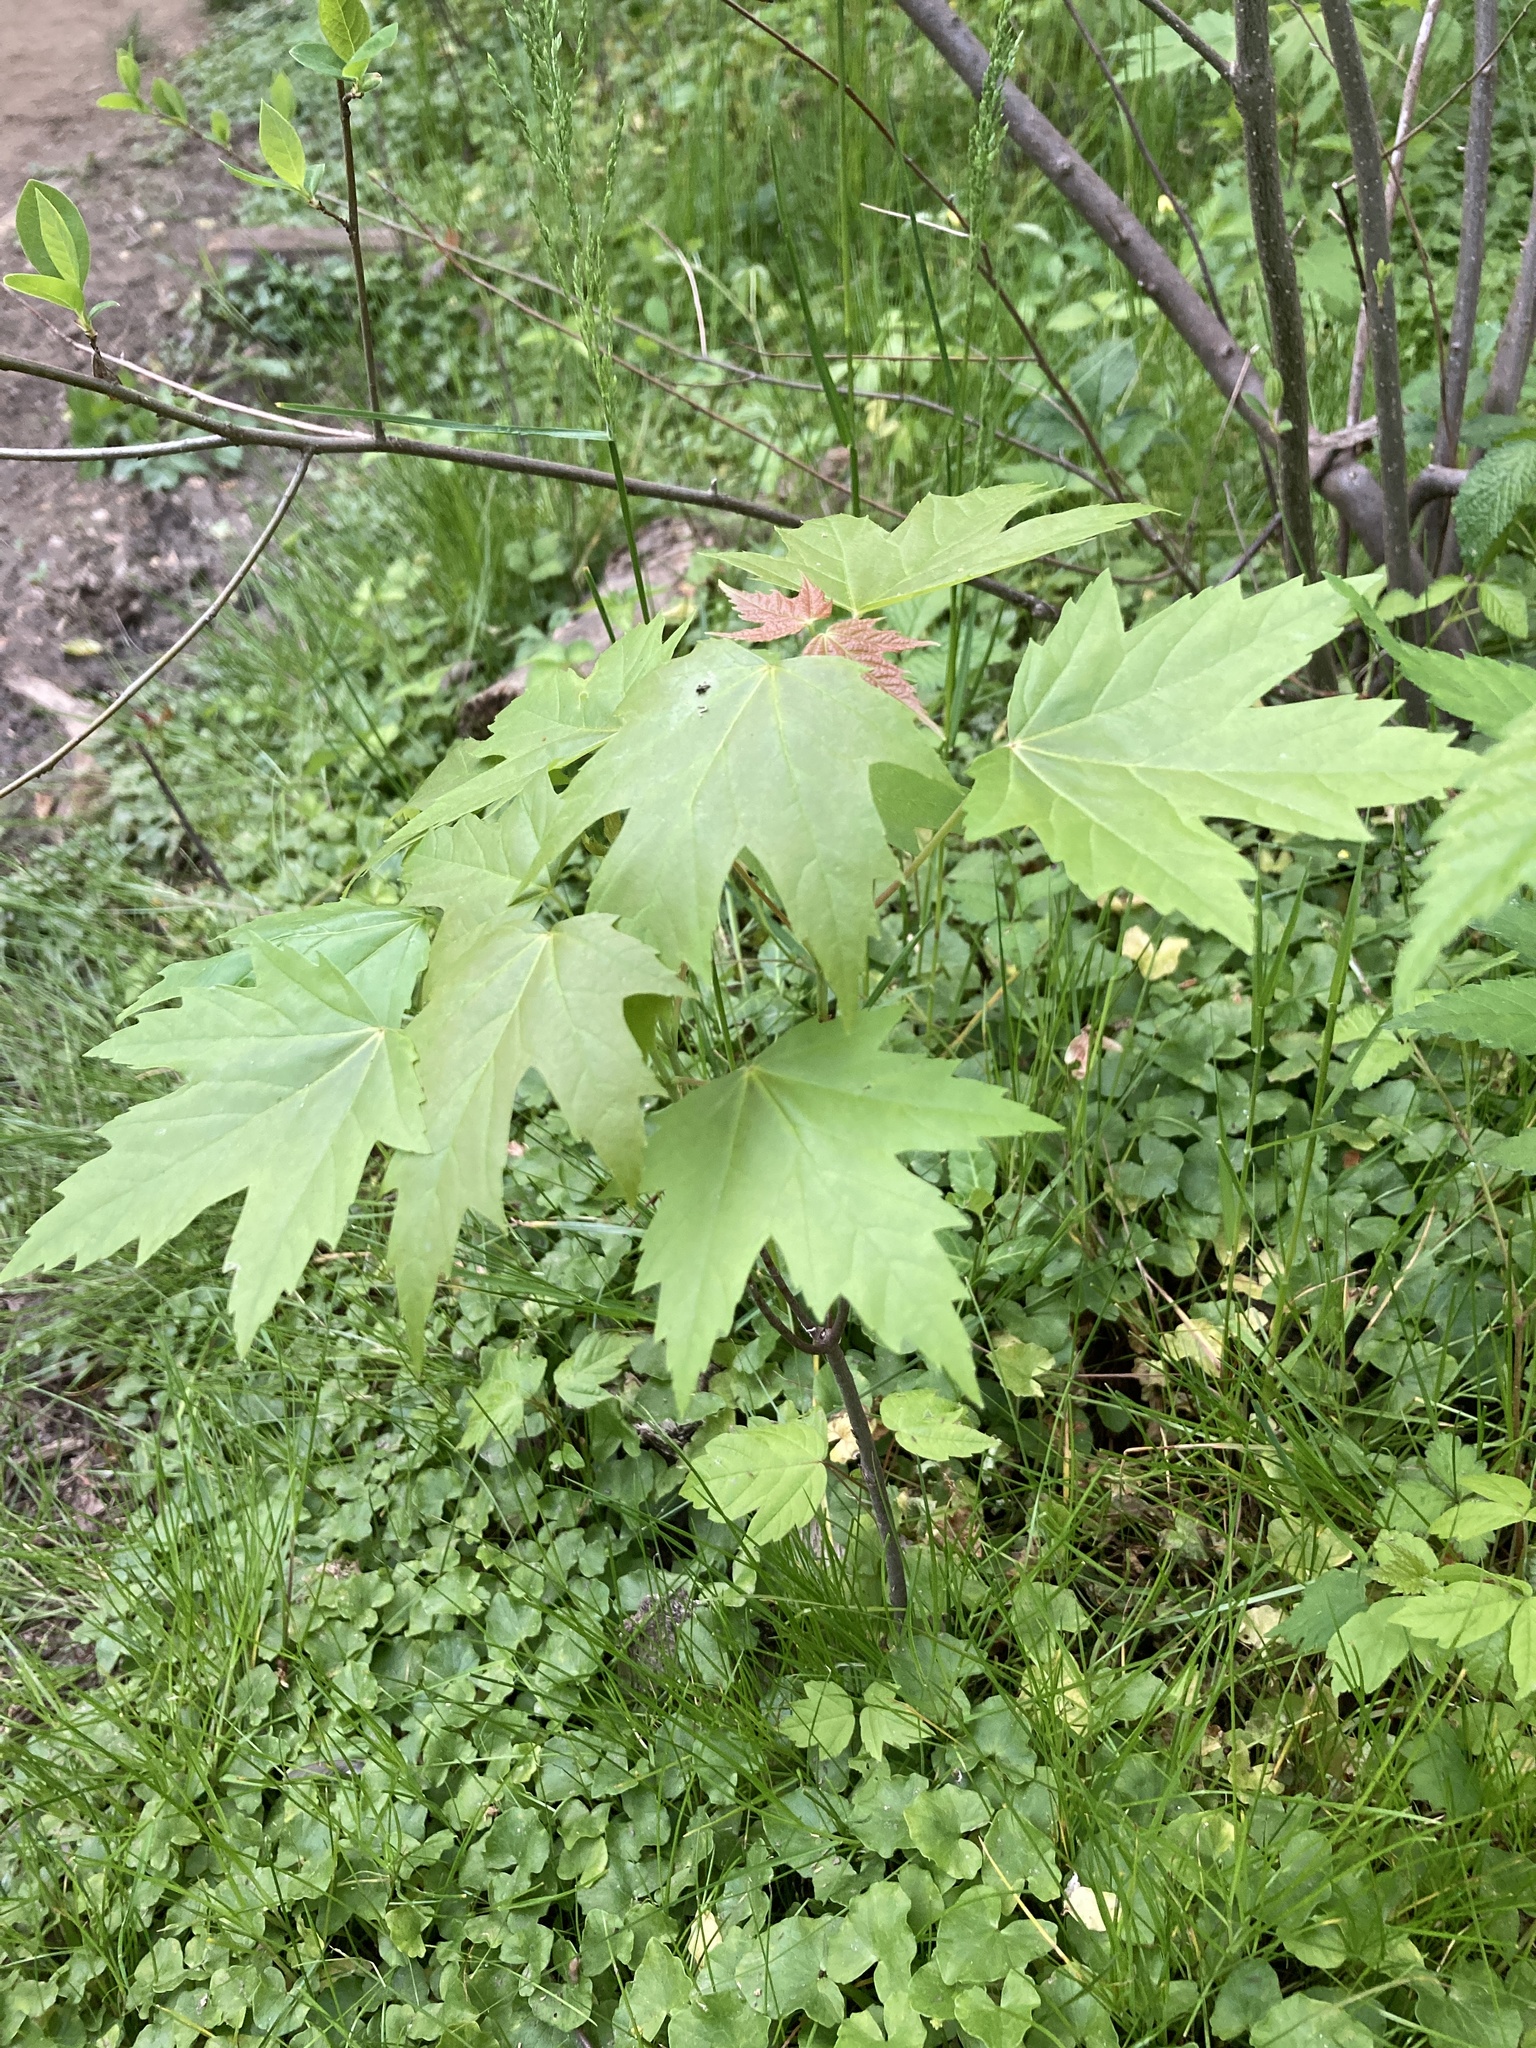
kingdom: Plantae
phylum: Tracheophyta
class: Magnoliopsida
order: Sapindales
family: Sapindaceae
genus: Acer
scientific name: Acer saccharinum
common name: Silver maple
